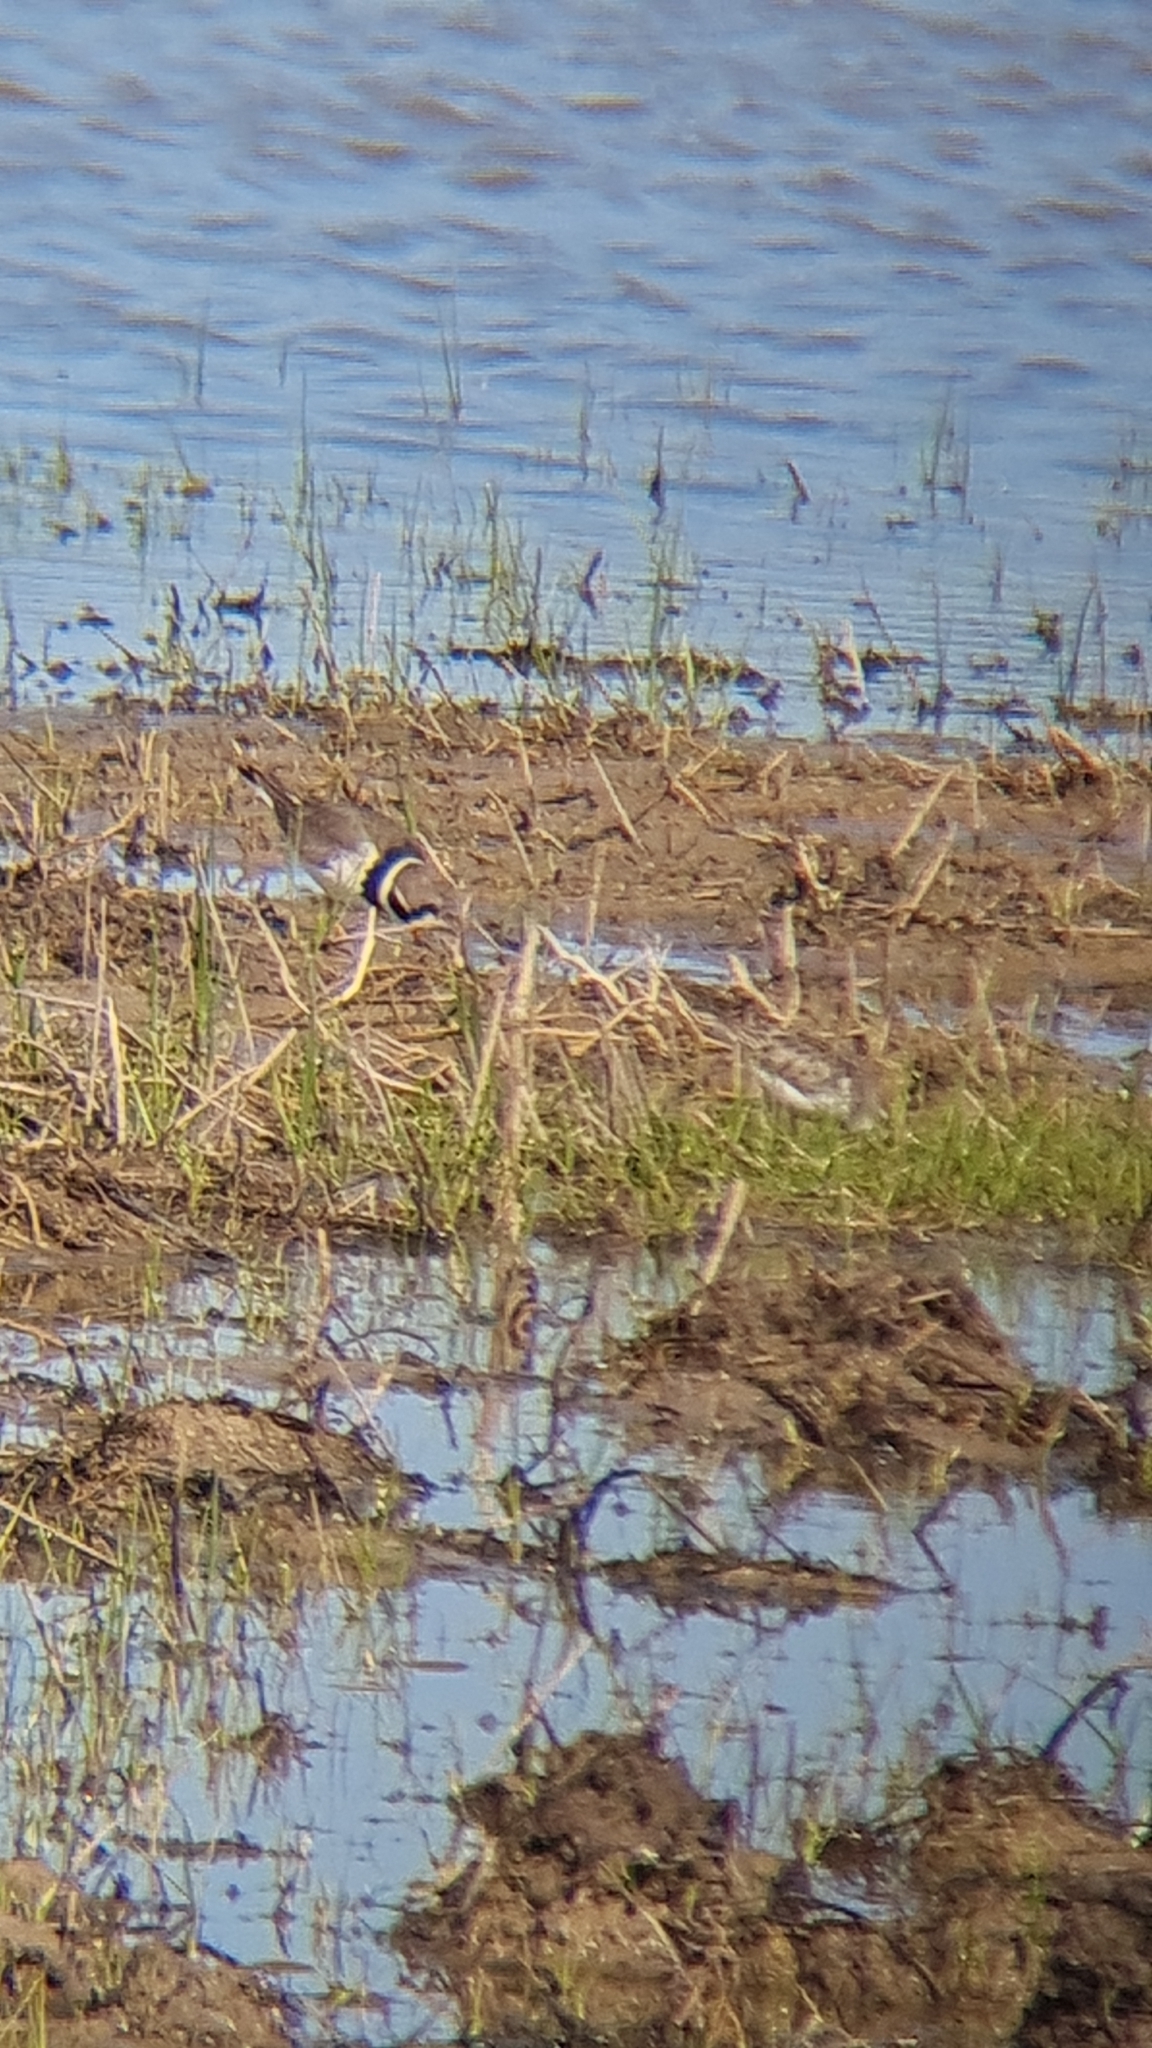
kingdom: Animalia
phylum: Chordata
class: Aves
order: Charadriiformes
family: Charadriidae
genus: Charadrius
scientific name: Charadrius hiaticula
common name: Common ringed plover
